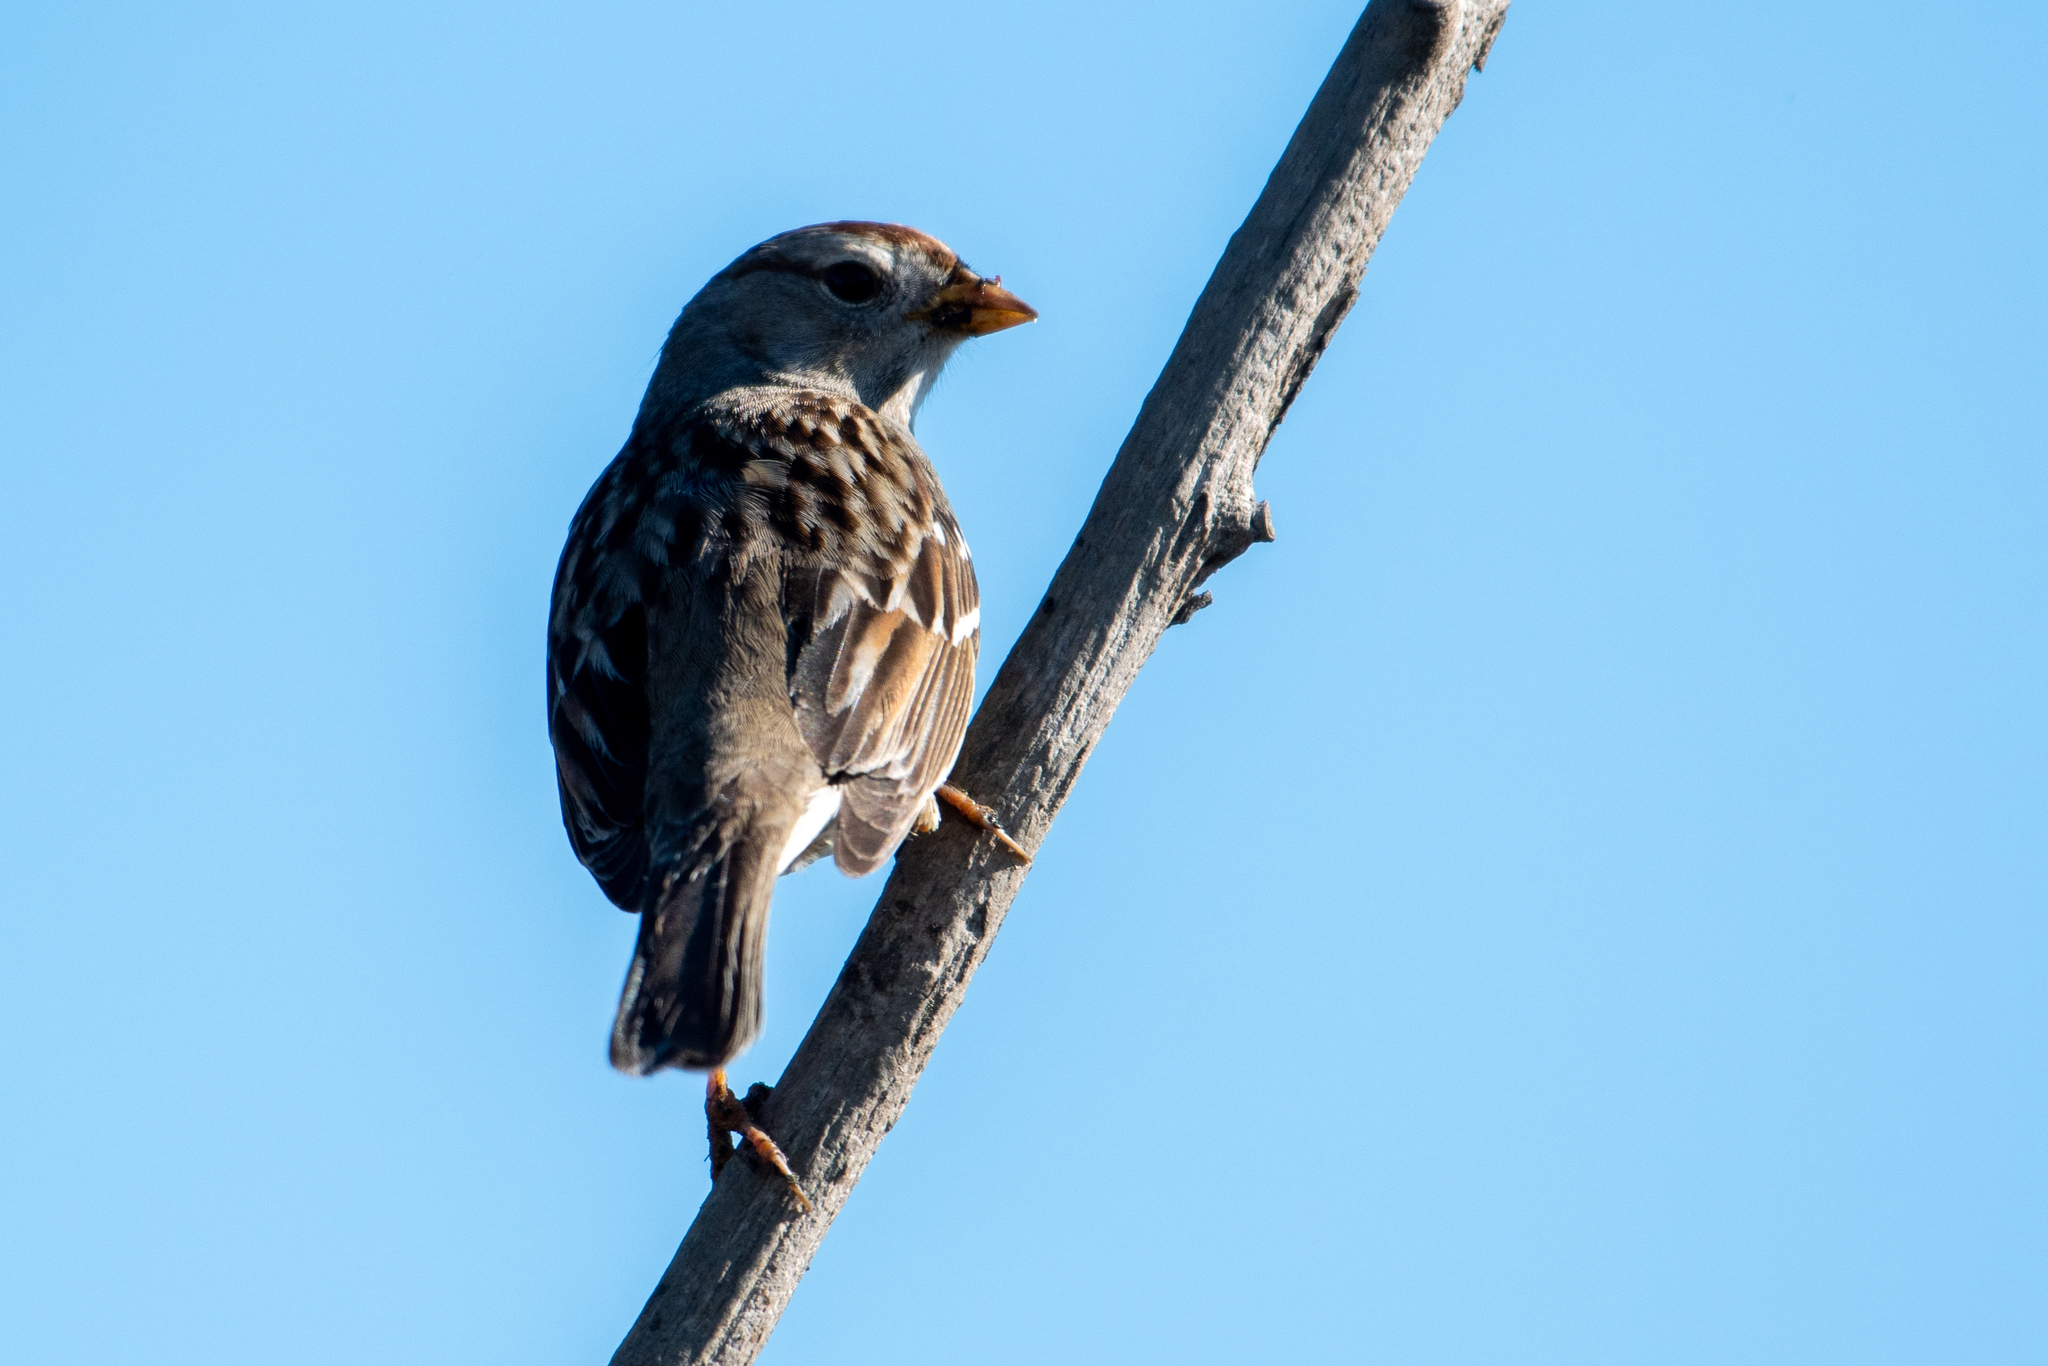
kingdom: Animalia
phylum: Chordata
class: Aves
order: Passeriformes
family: Passerellidae
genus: Zonotrichia
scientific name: Zonotrichia leucophrys
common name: White-crowned sparrow
